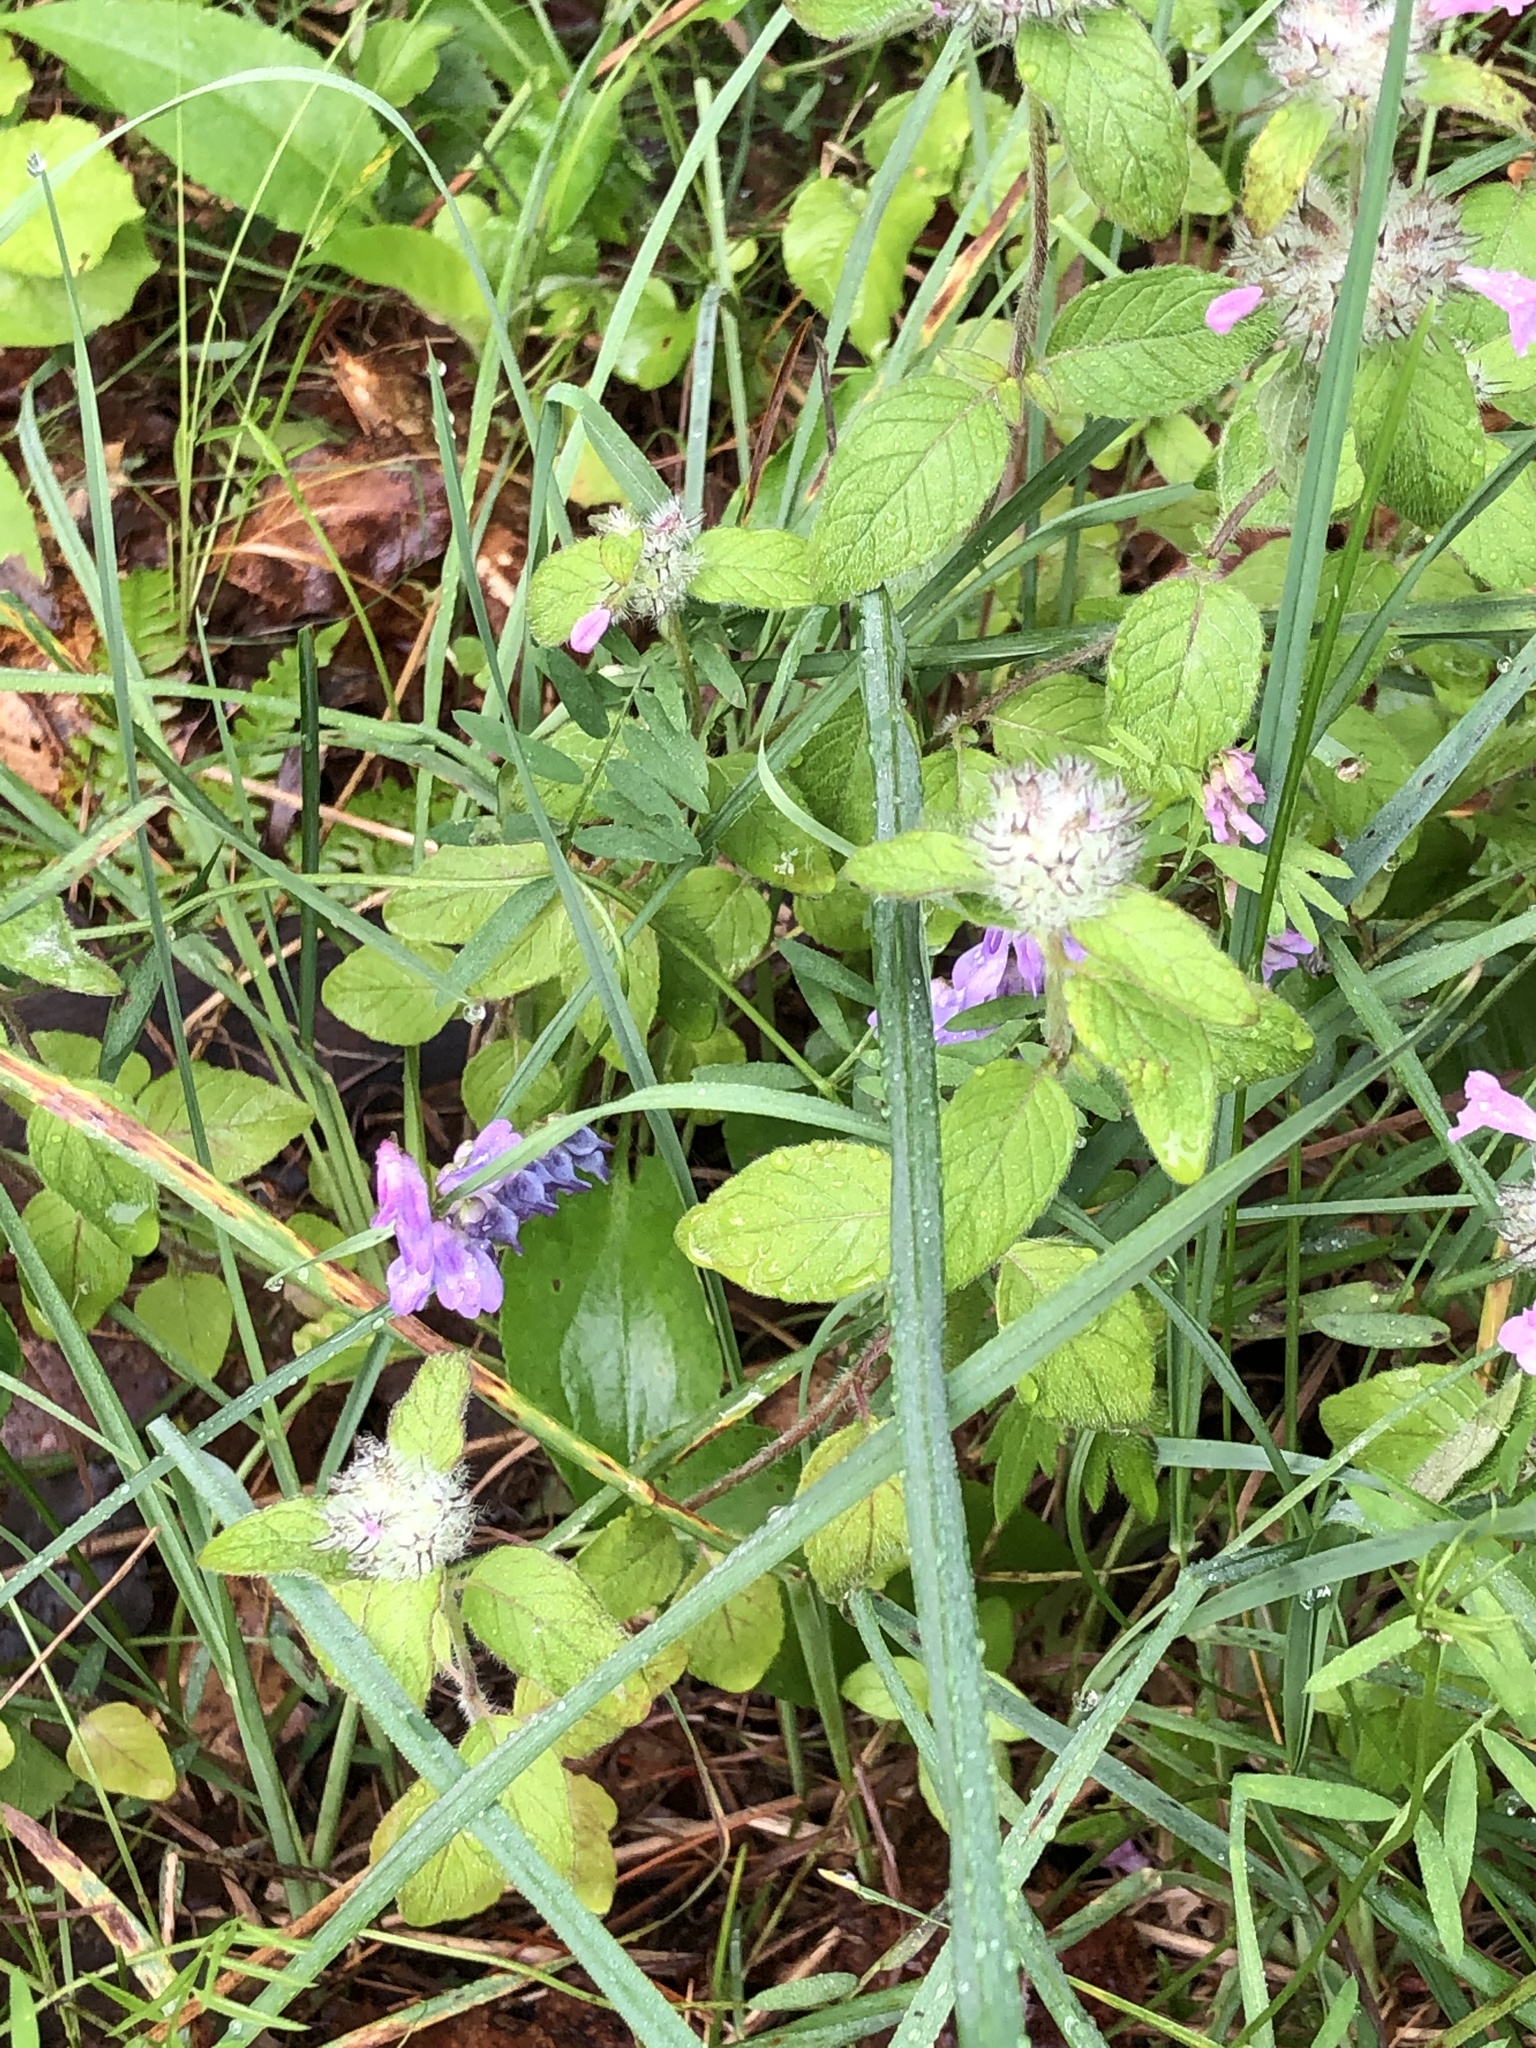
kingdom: Plantae
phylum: Tracheophyta
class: Magnoliopsida
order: Lamiales
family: Lamiaceae
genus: Clinopodium
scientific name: Clinopodium vulgare
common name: Wild basil
